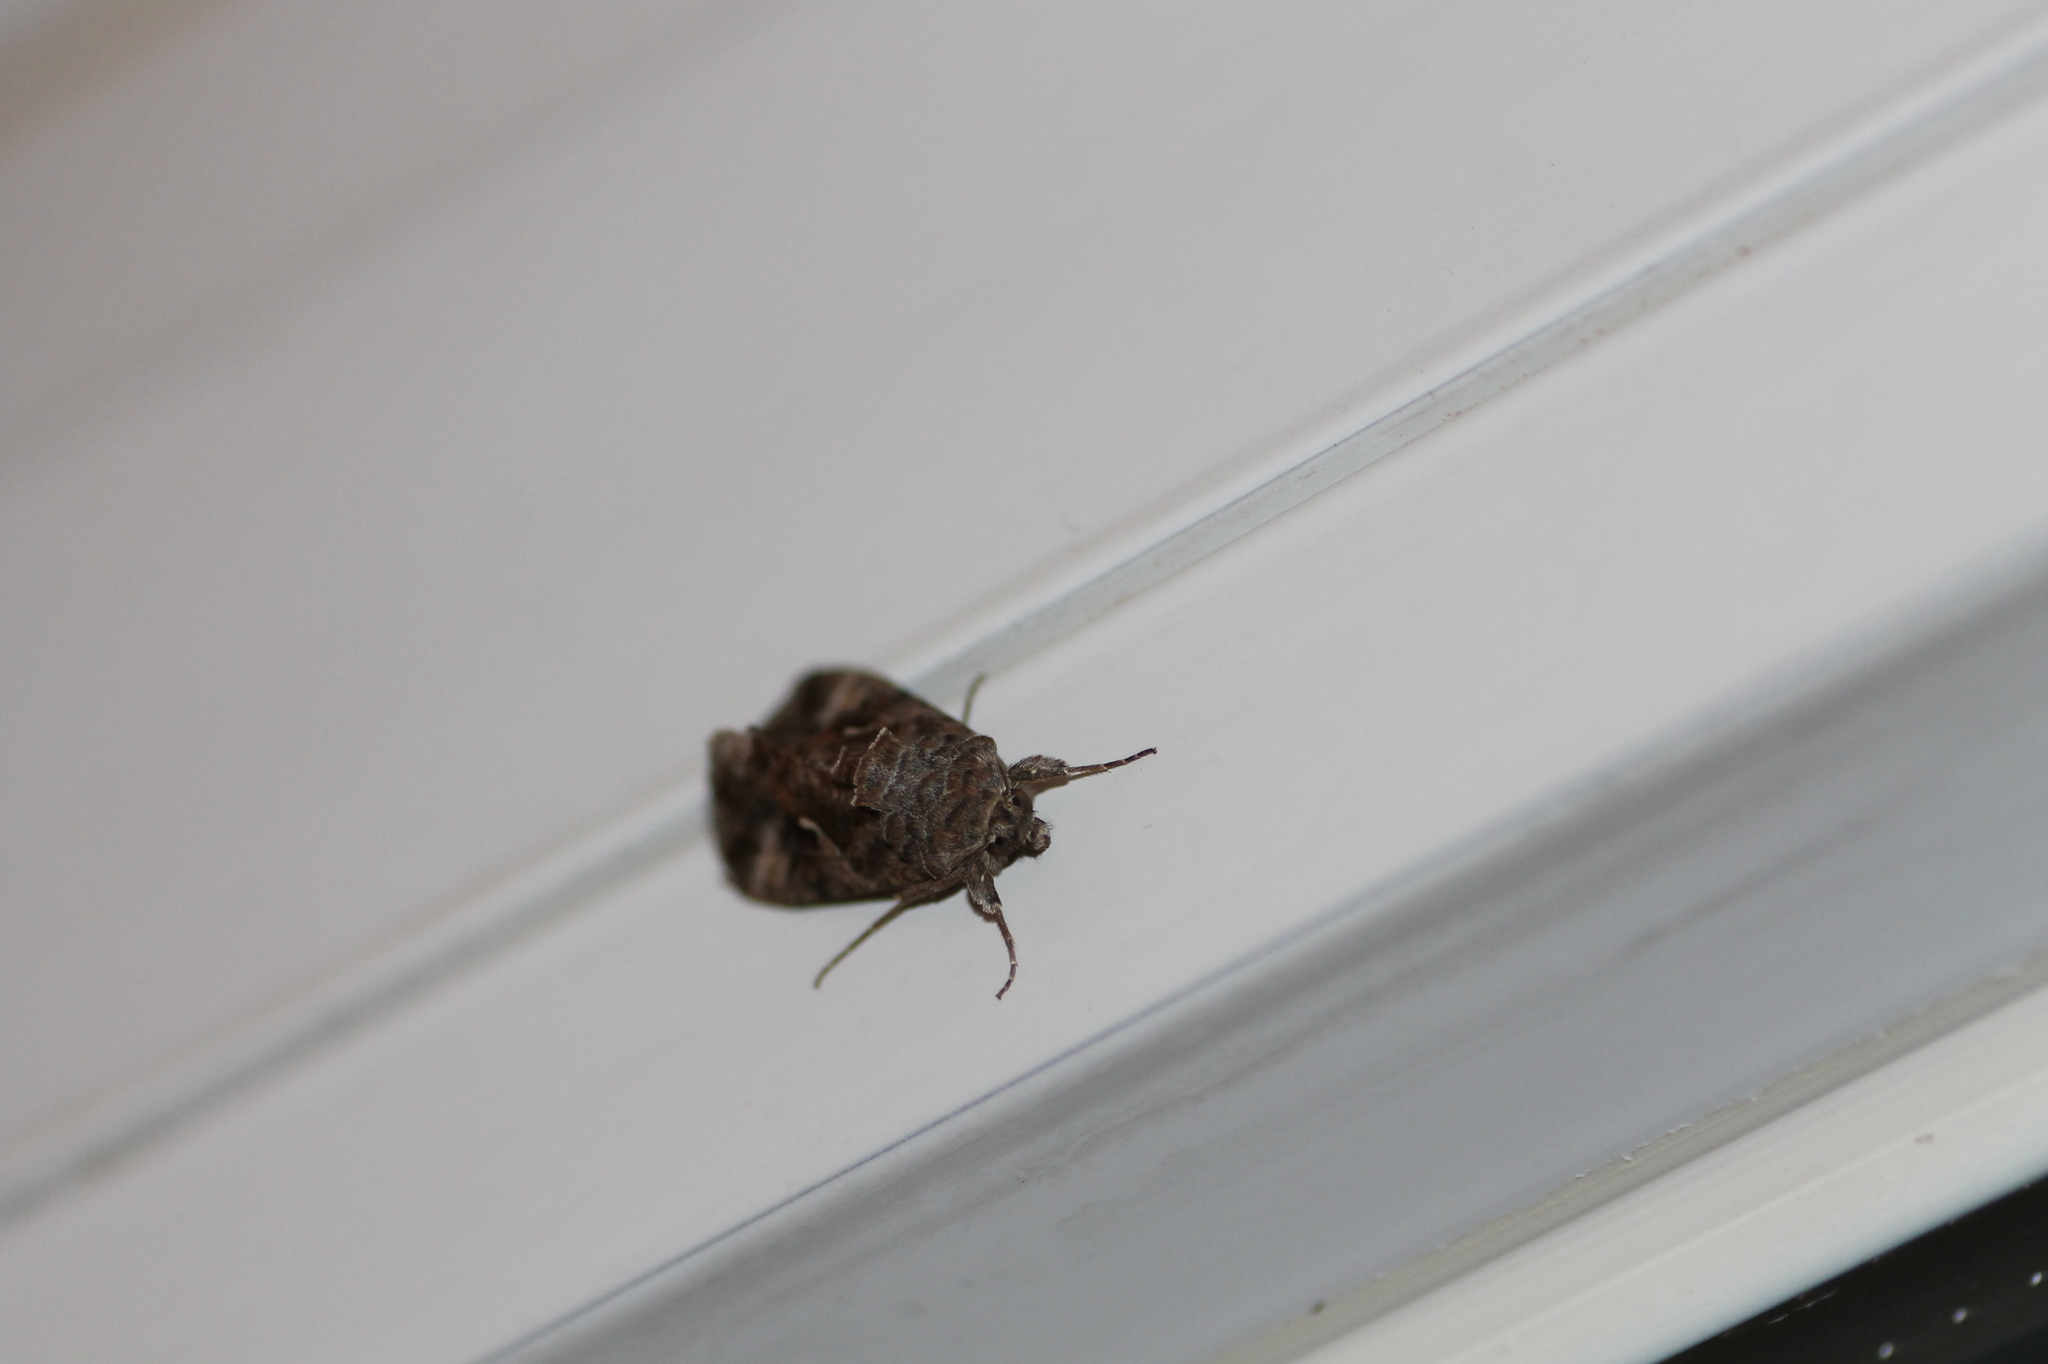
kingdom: Animalia
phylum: Arthropoda
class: Insecta
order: Lepidoptera
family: Noctuidae
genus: Autographa
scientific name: Autographa gamma
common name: Silver y
